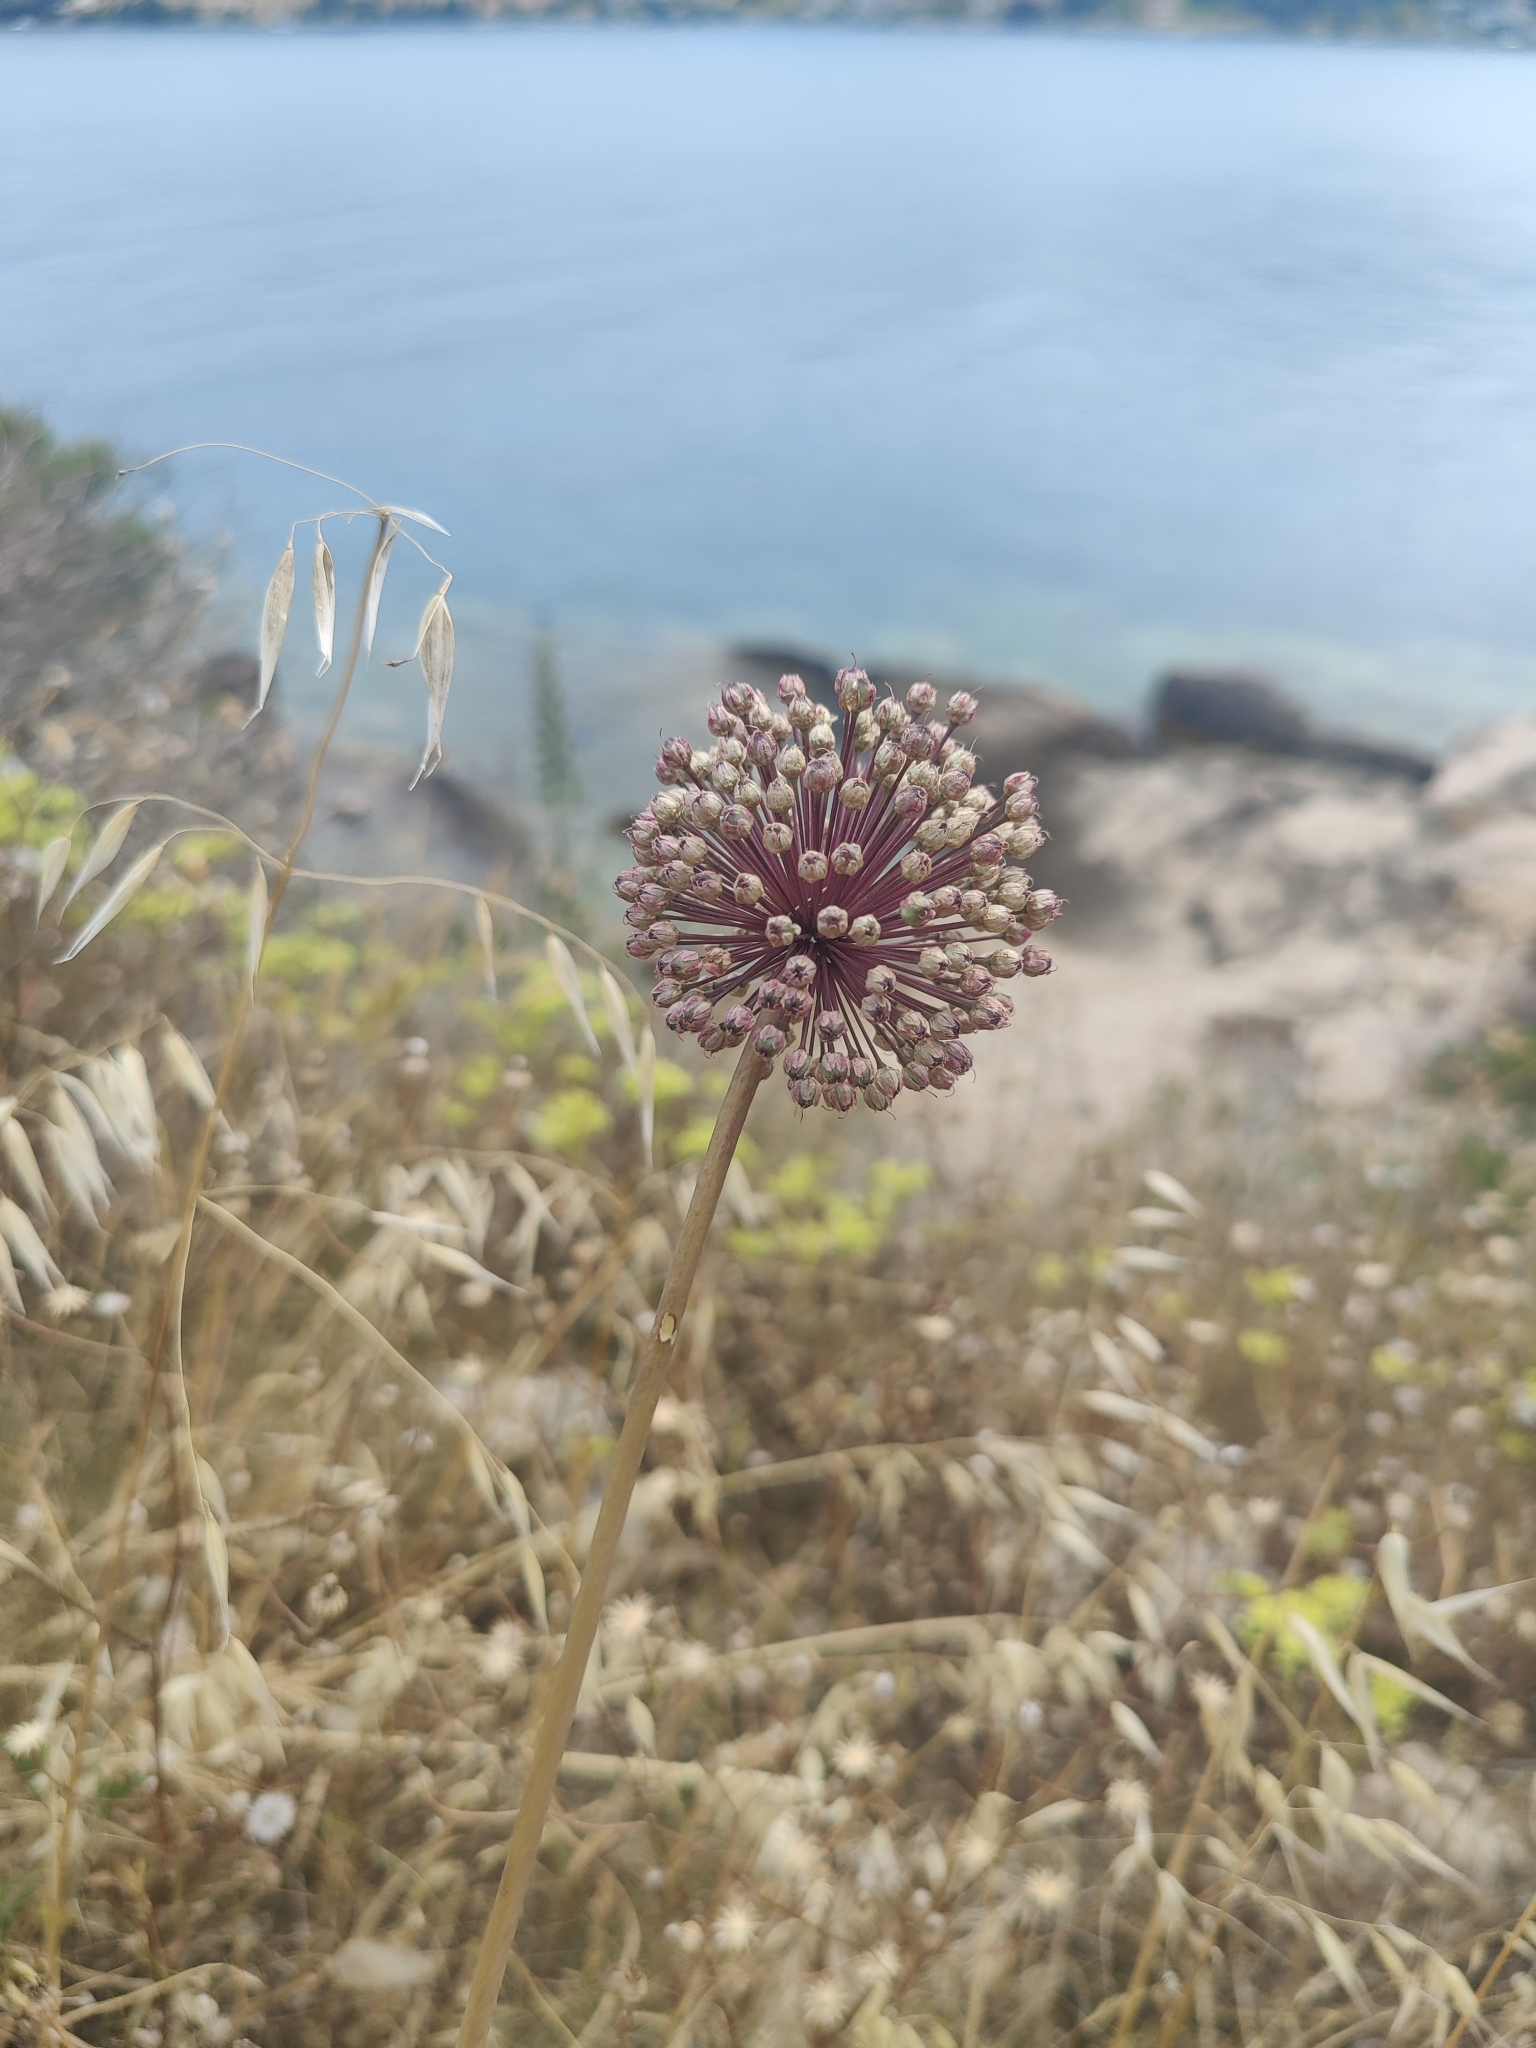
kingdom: Plantae
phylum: Tracheophyta
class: Liliopsida
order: Asparagales
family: Amaryllidaceae
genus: Allium
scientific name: Allium ampeloprasum
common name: Wild leek
